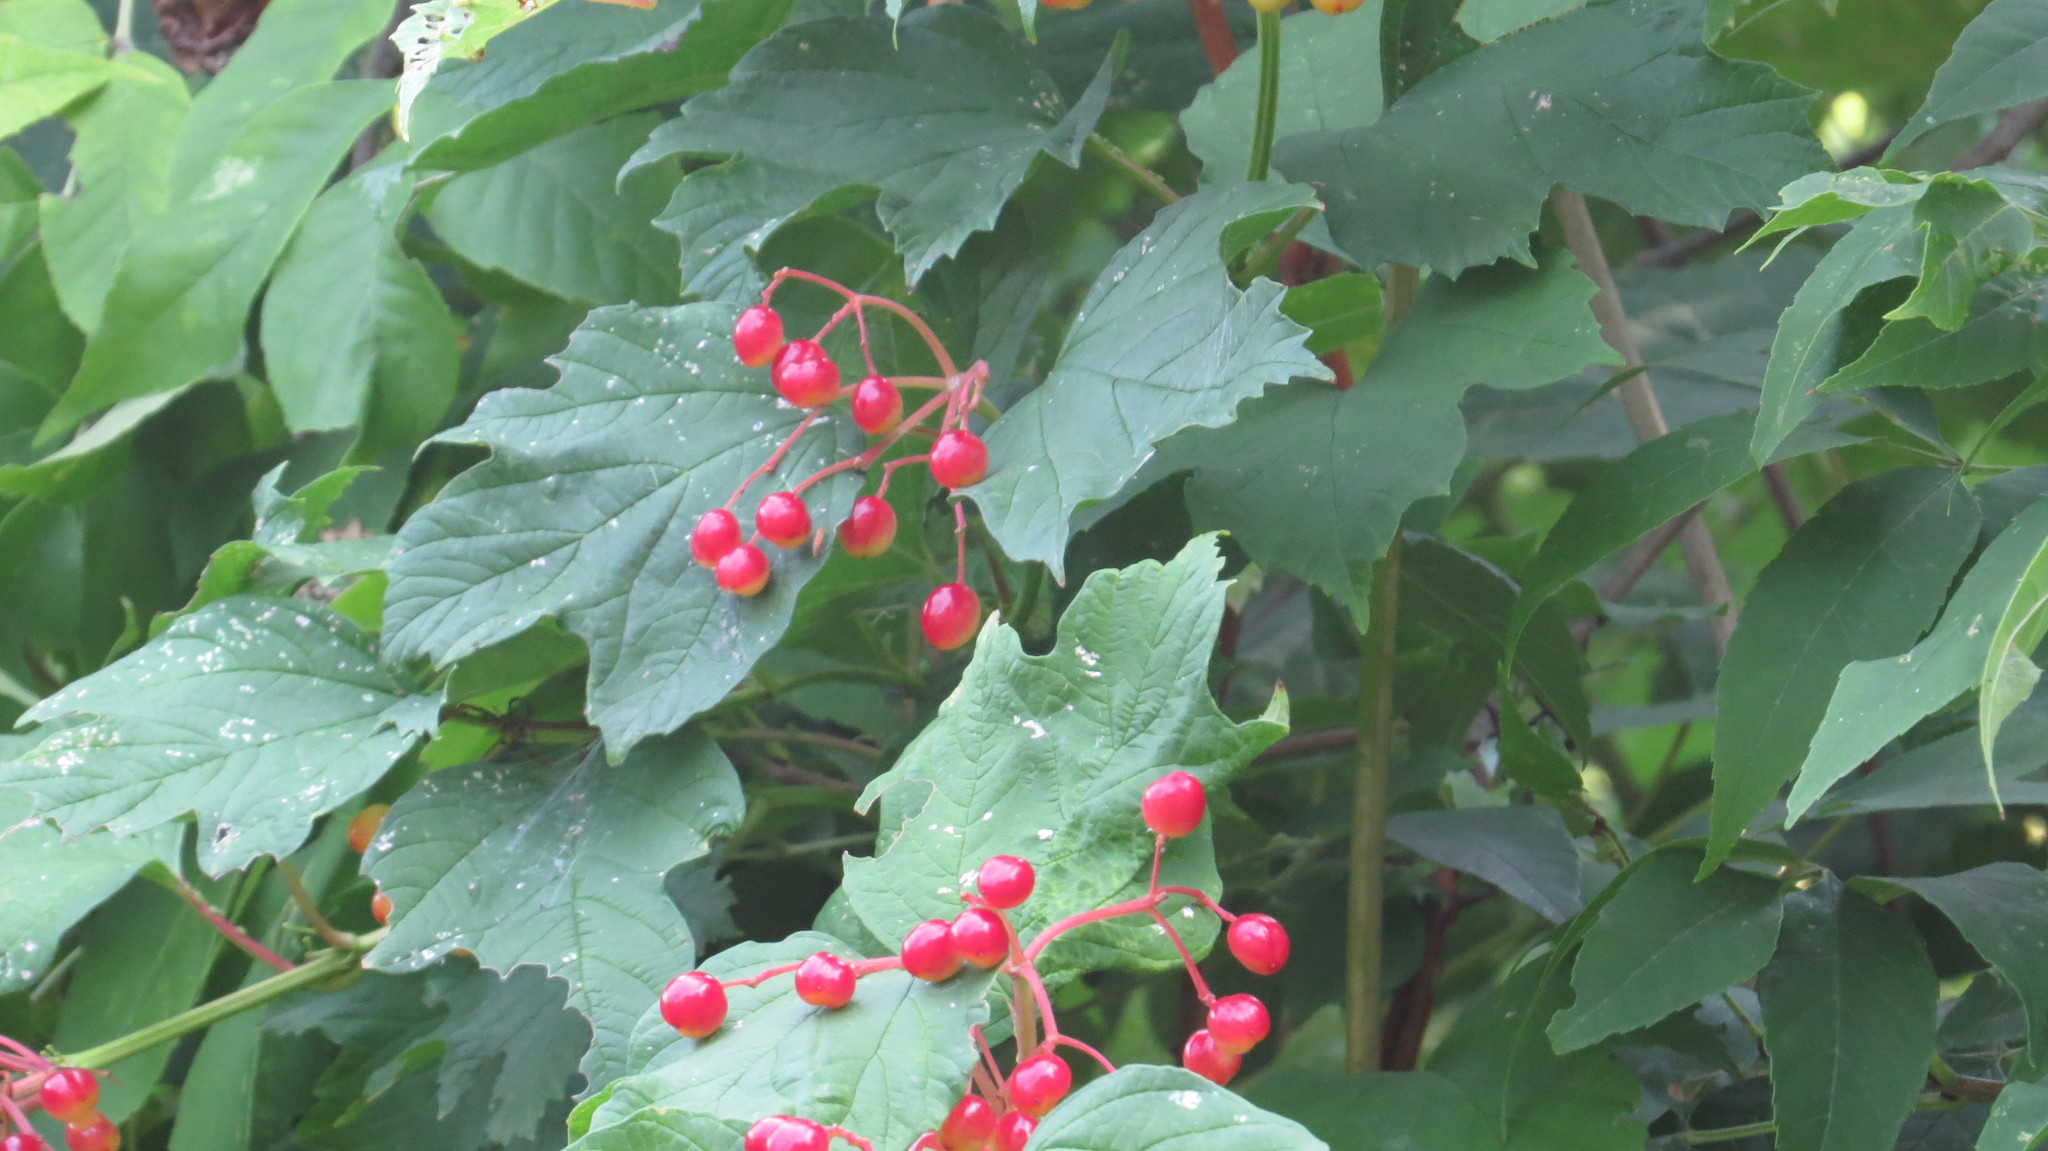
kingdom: Plantae
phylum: Tracheophyta
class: Magnoliopsida
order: Dipsacales
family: Viburnaceae
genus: Viburnum
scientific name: Viburnum opulus
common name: Guelder-rose
